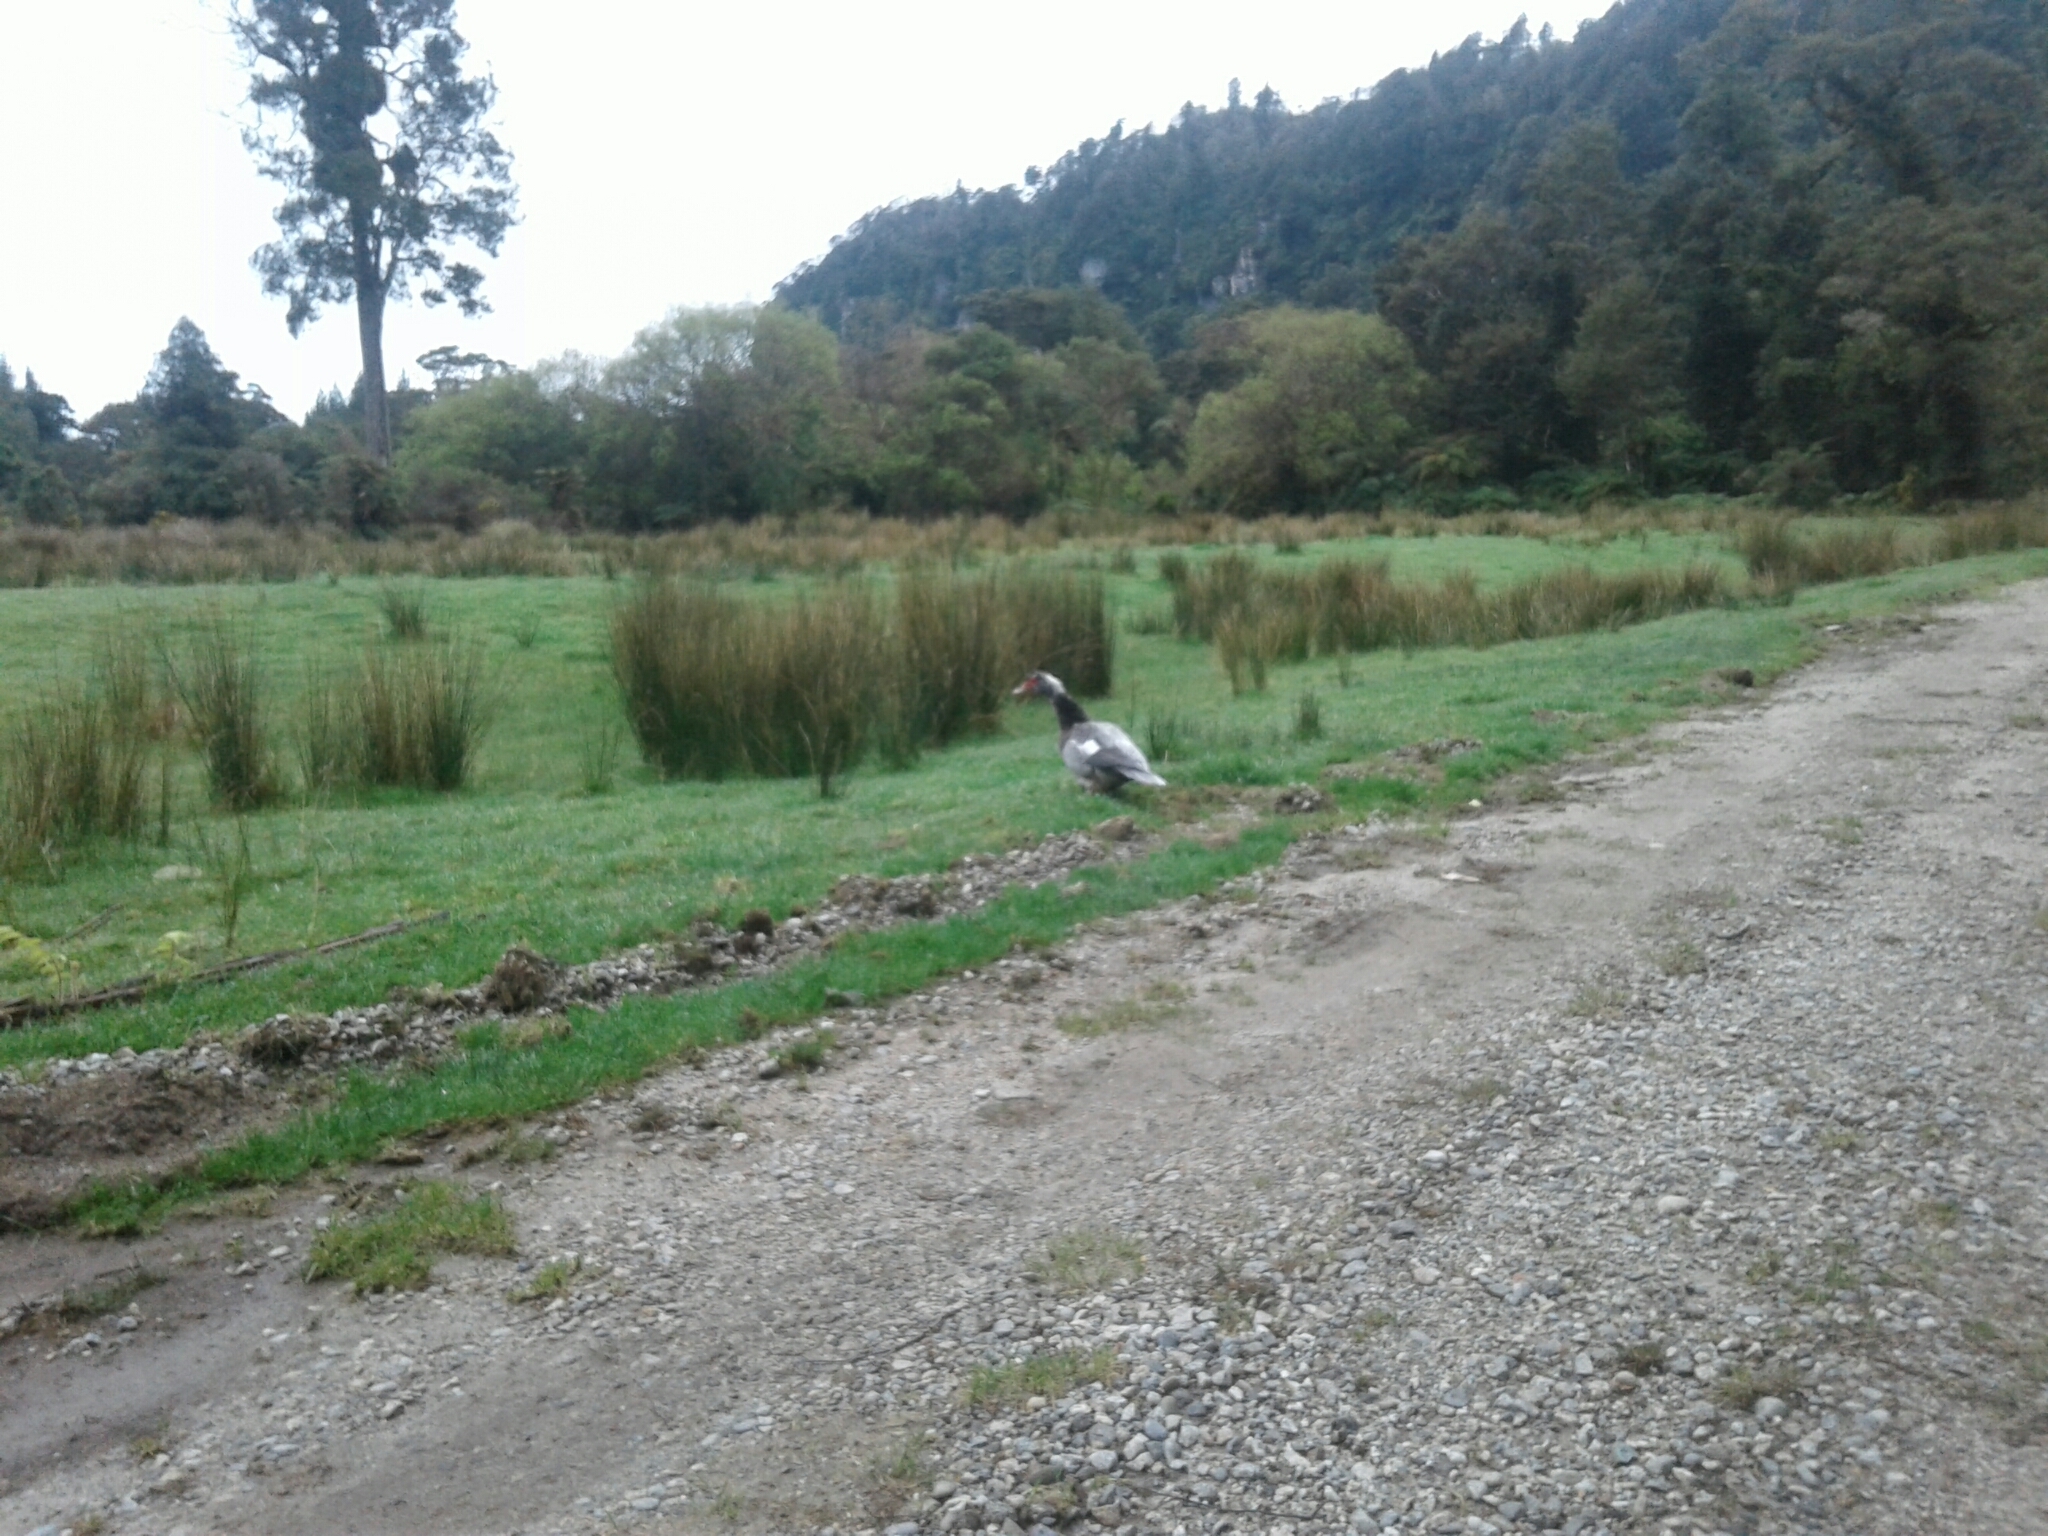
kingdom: Animalia
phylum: Chordata
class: Aves
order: Anseriformes
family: Anatidae
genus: Cairina
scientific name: Cairina moschata
